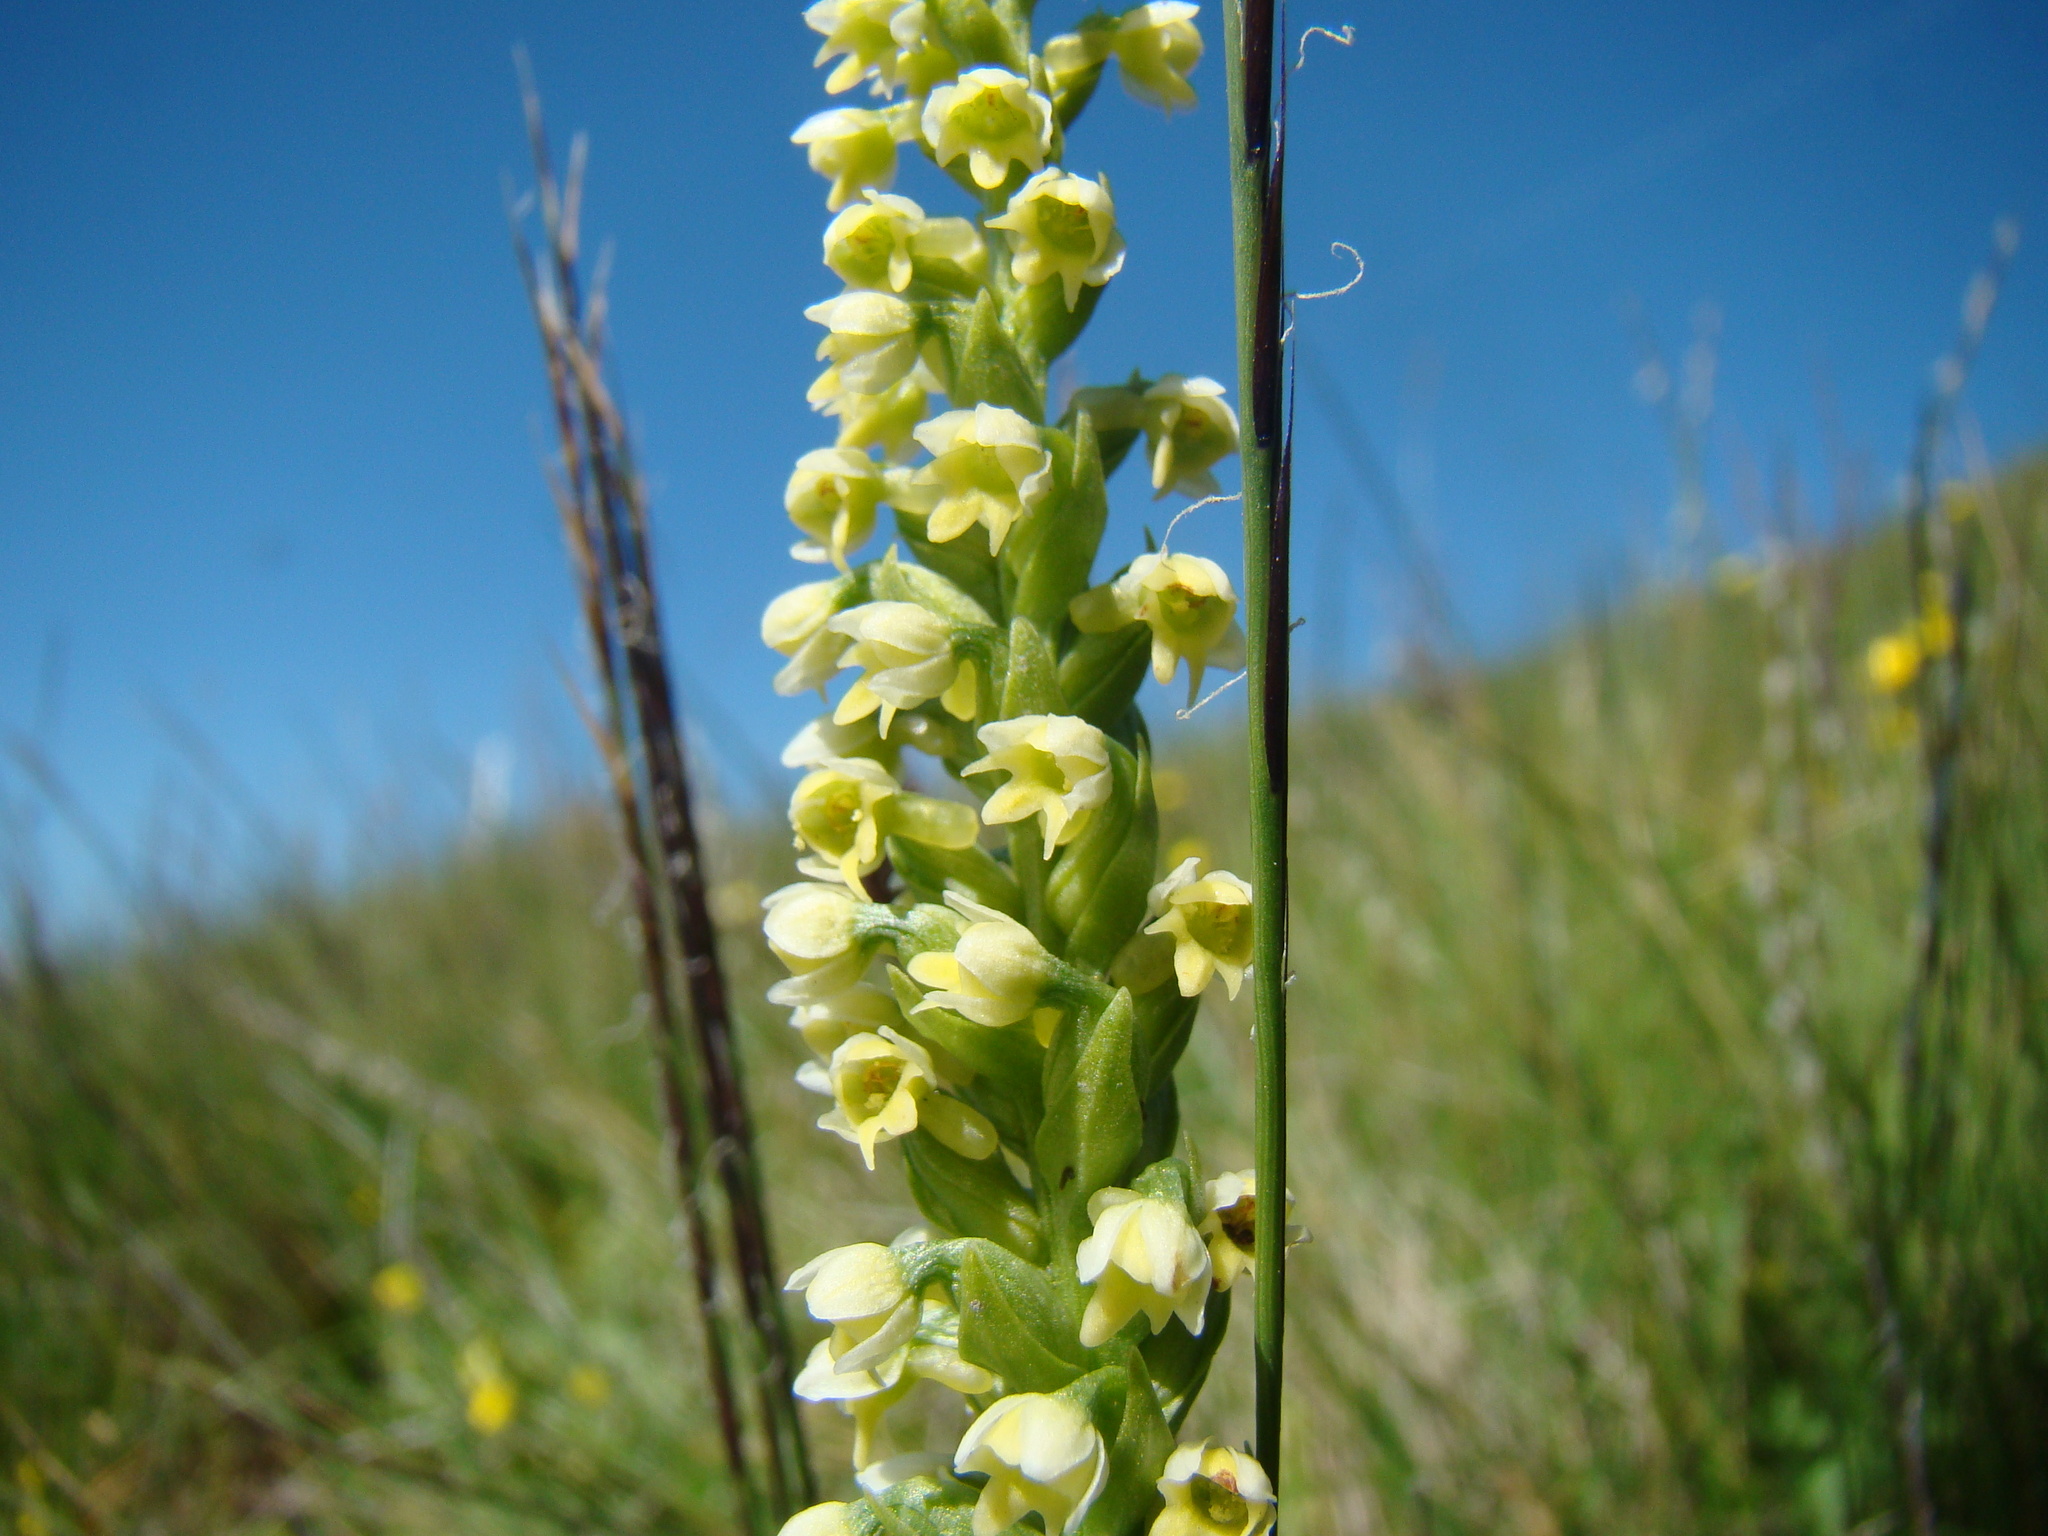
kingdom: Plantae
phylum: Tracheophyta
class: Liliopsida
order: Asparagales
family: Orchidaceae
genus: Pseudorchis
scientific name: Pseudorchis albida
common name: Small-white orchid
